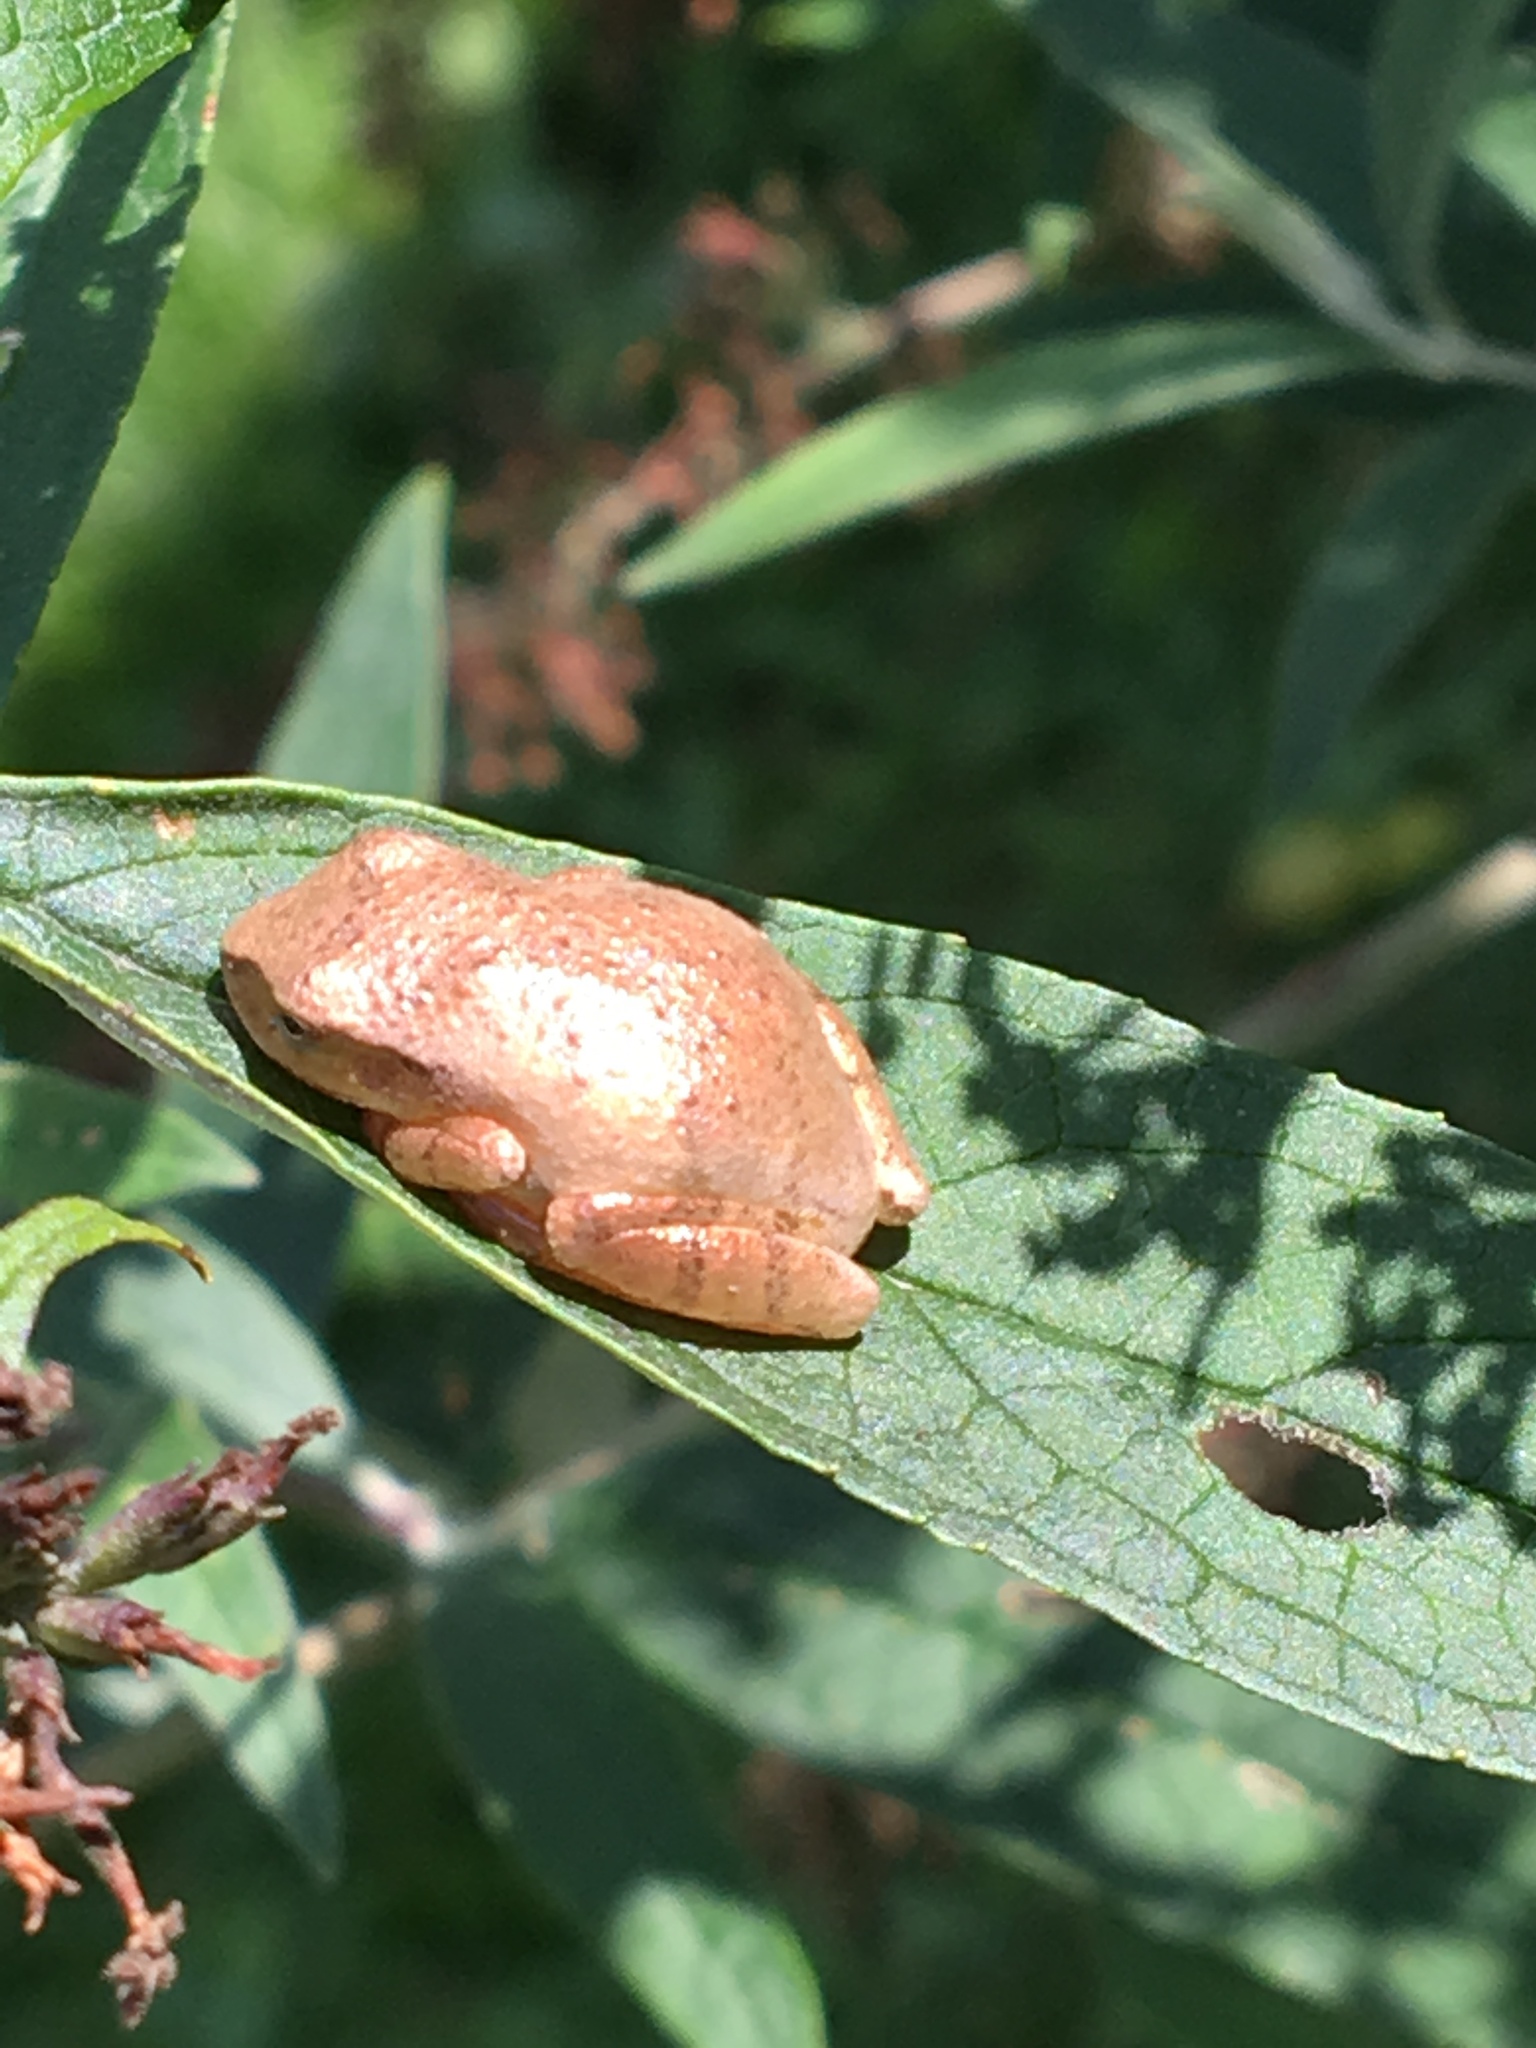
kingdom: Animalia
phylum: Chordata
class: Amphibia
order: Anura
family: Hylidae
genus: Pseudacris
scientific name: Pseudacris crucifer
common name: Spring peeper
